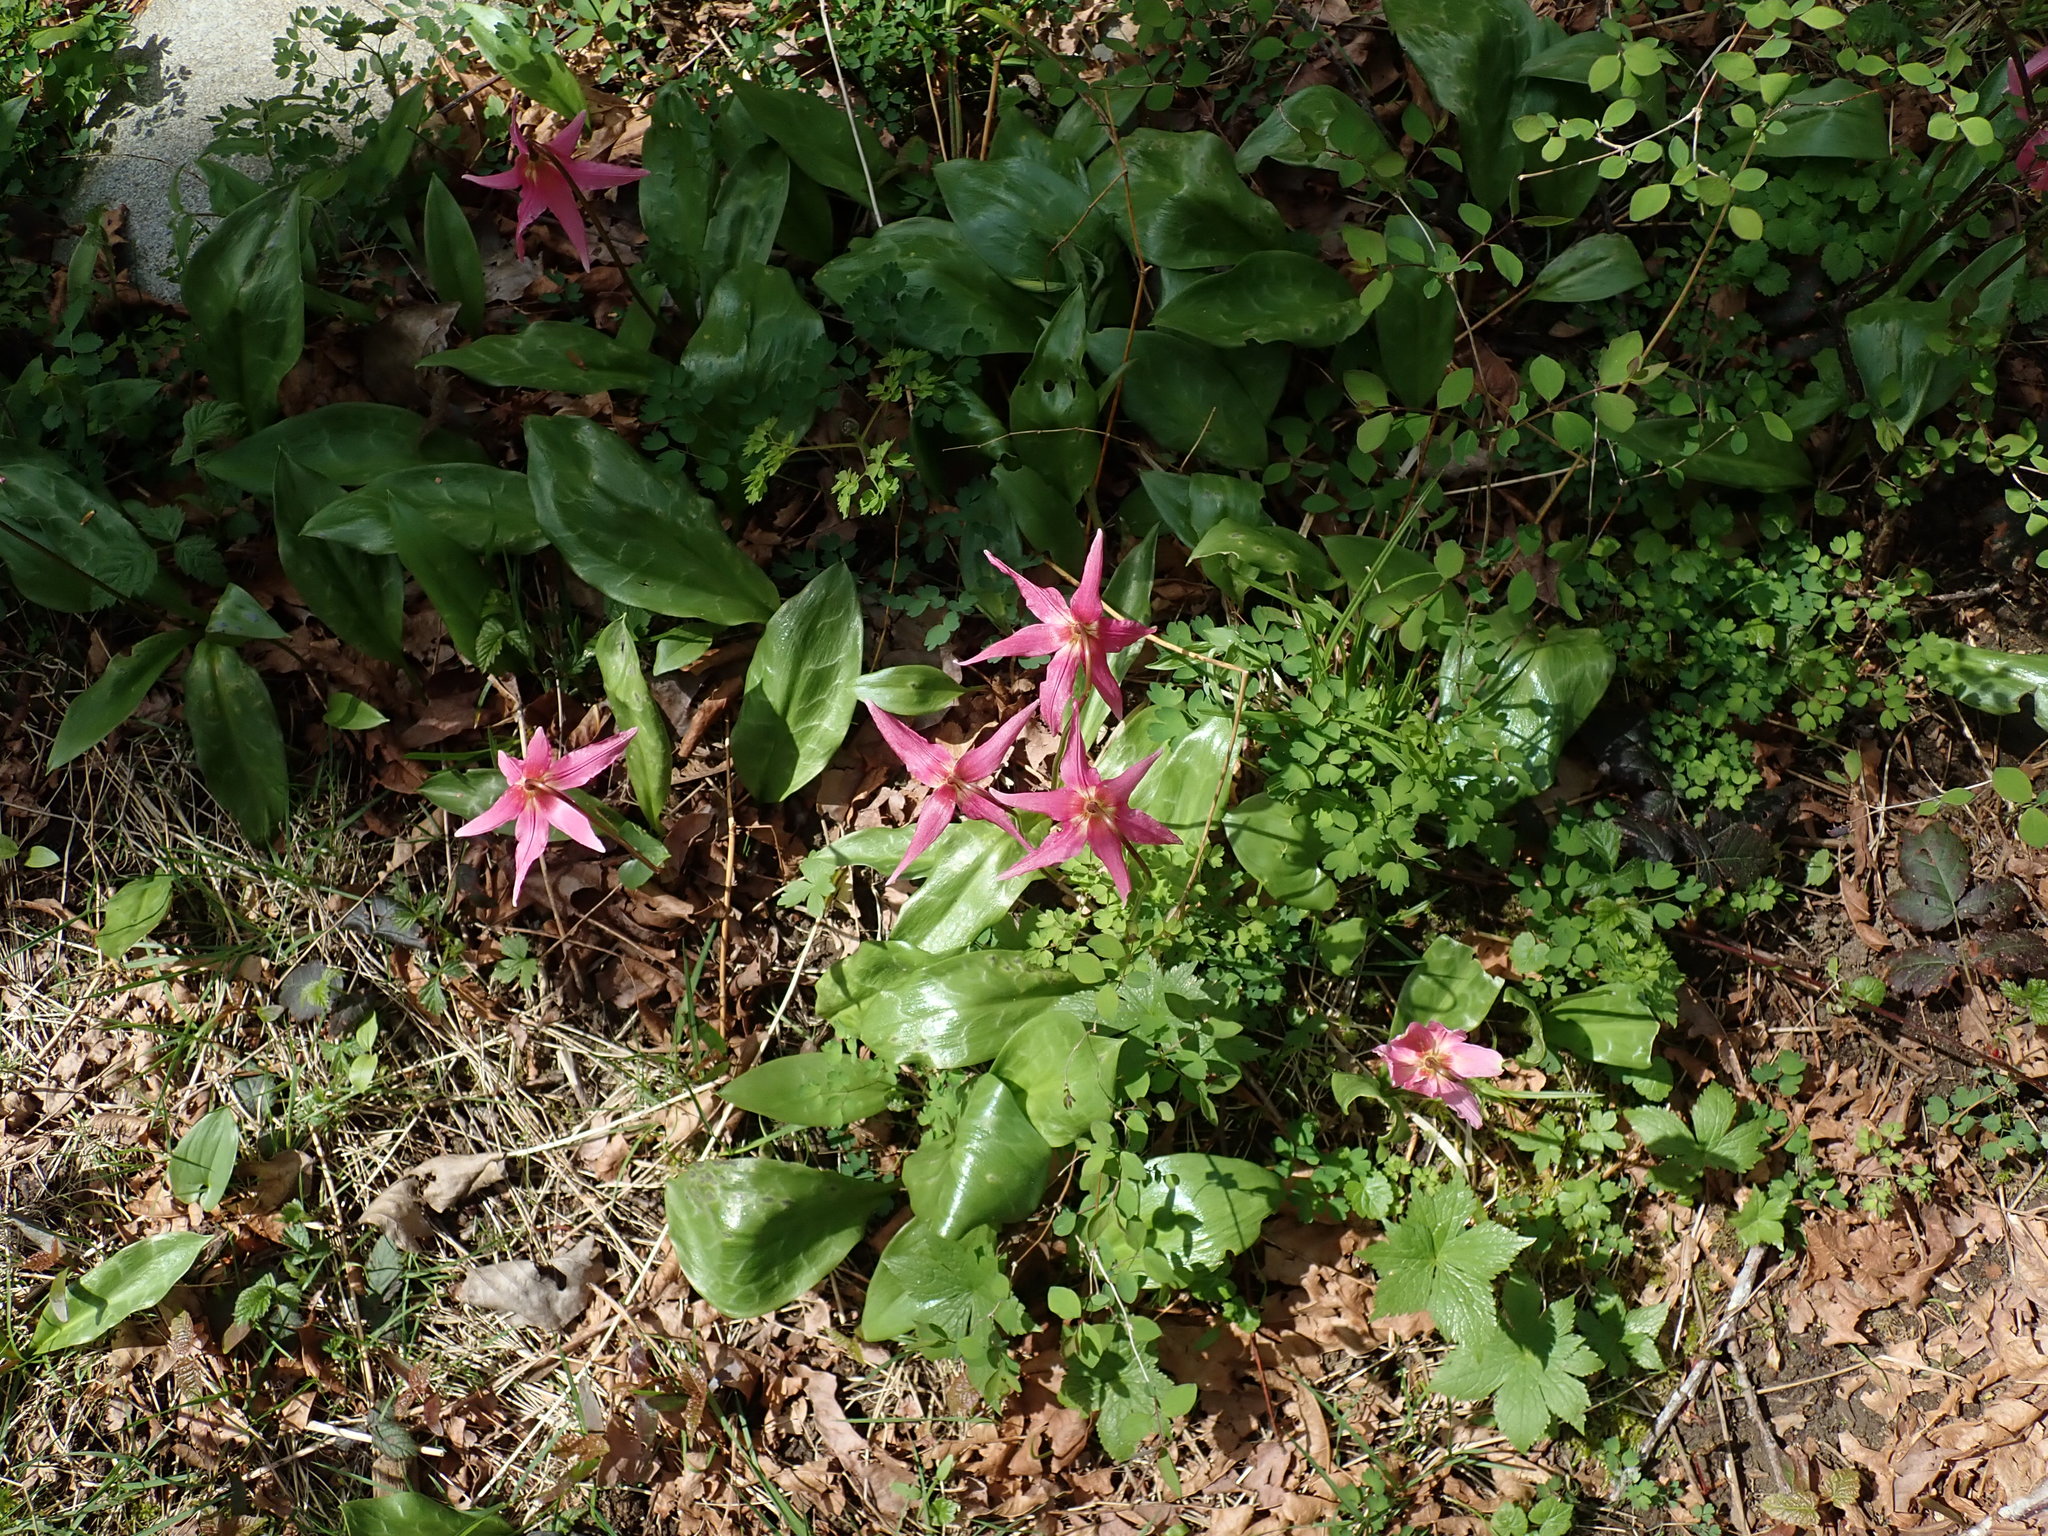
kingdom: Plantae
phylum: Tracheophyta
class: Liliopsida
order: Liliales
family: Liliaceae
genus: Erythronium
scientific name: Erythronium revolutum
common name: Pink fawn-lily
